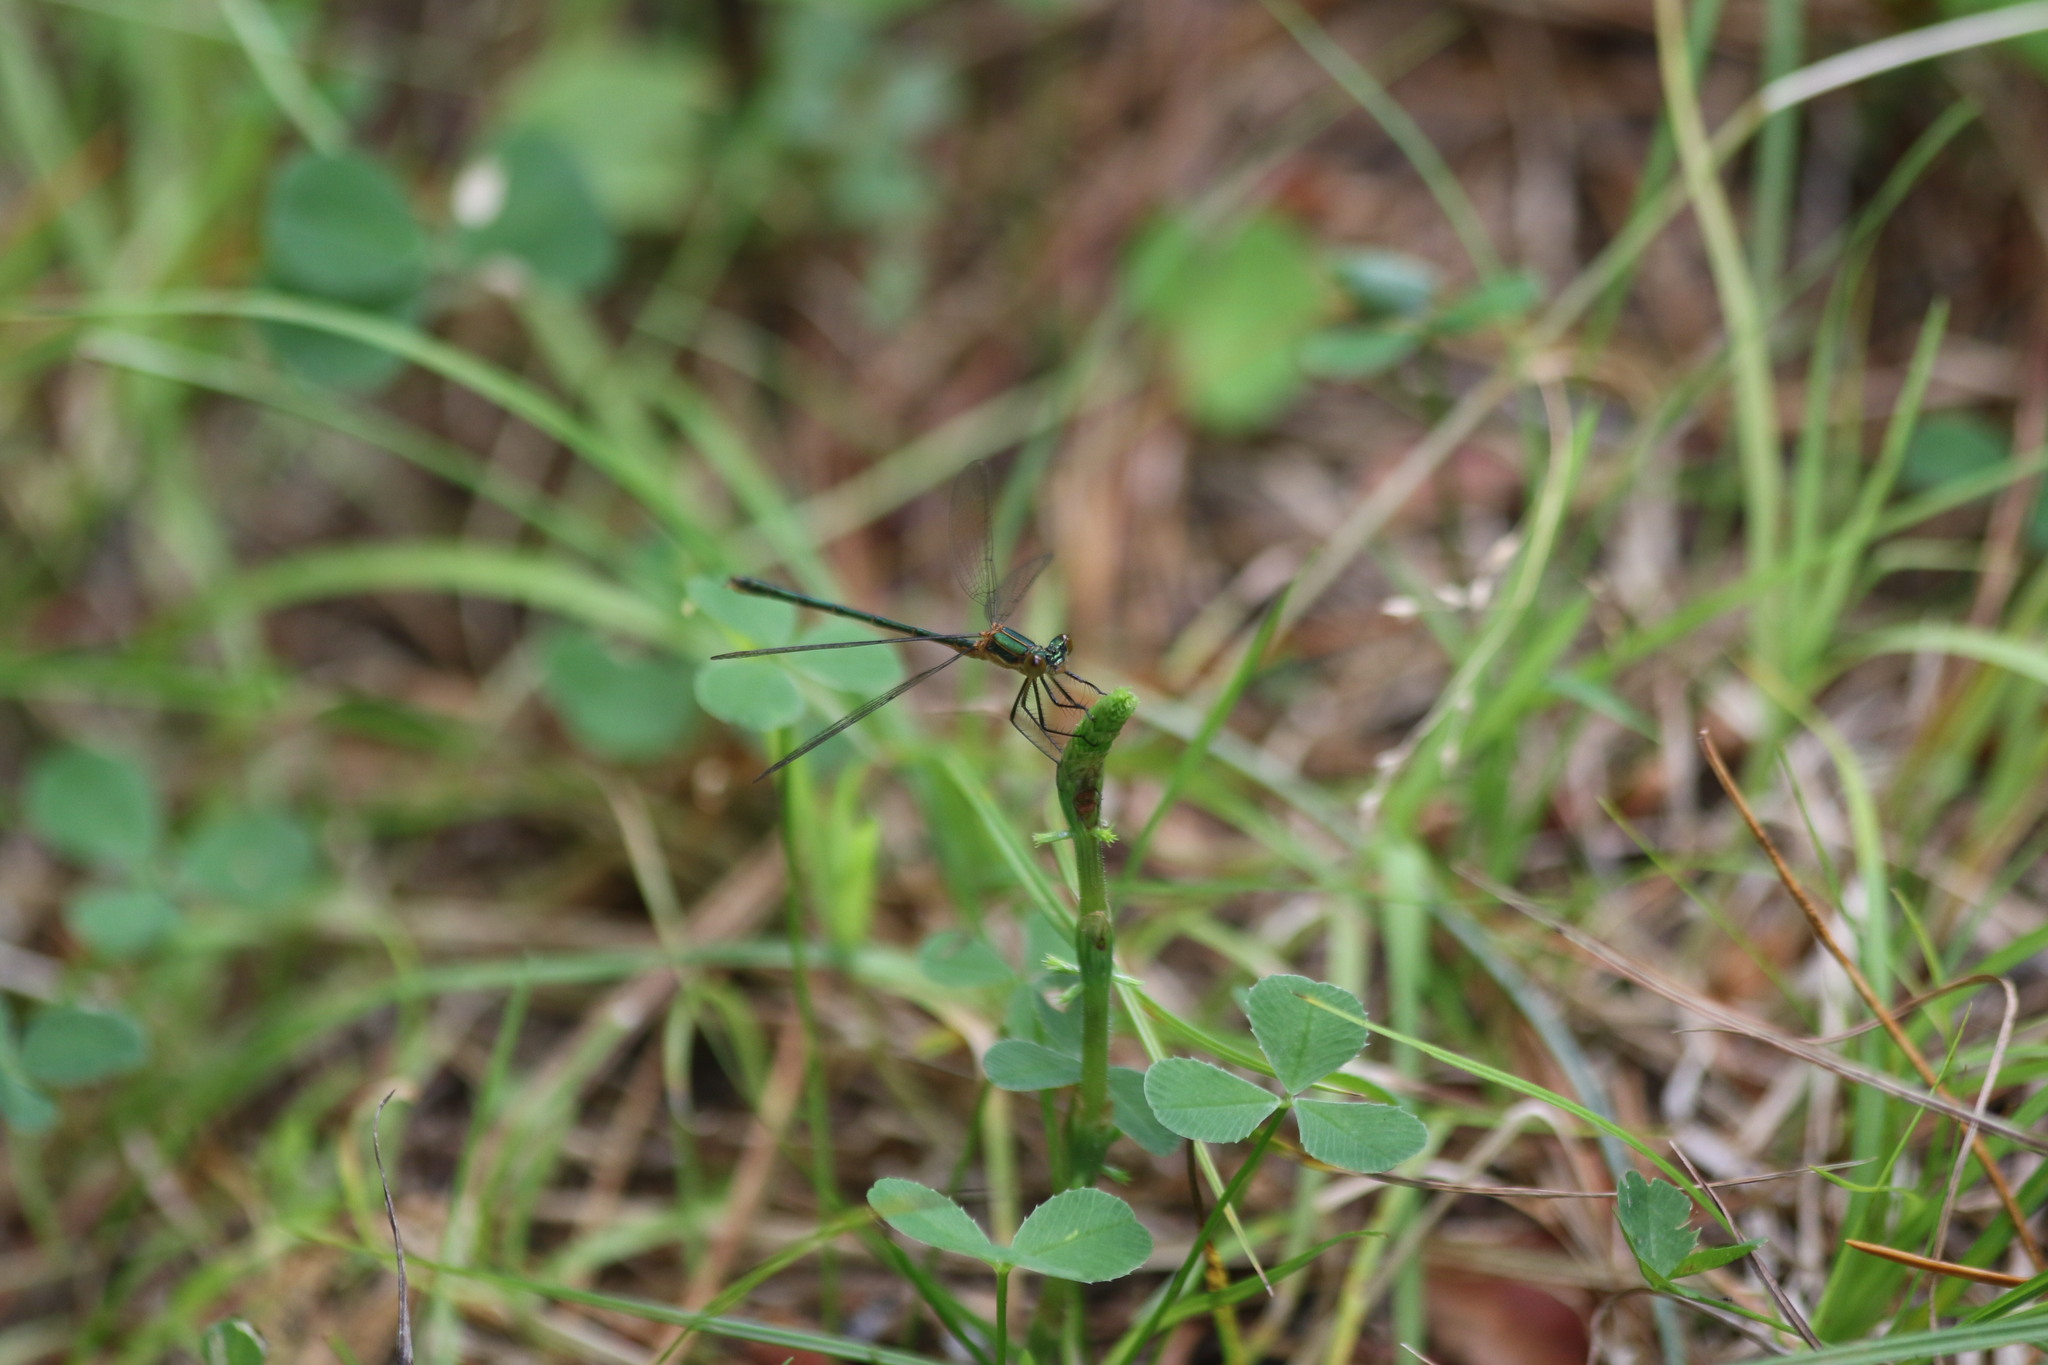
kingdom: Animalia
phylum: Arthropoda
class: Insecta
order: Odonata
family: Lestidae
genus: Lestes
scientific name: Lestes sponsa
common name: Common spreadwing
